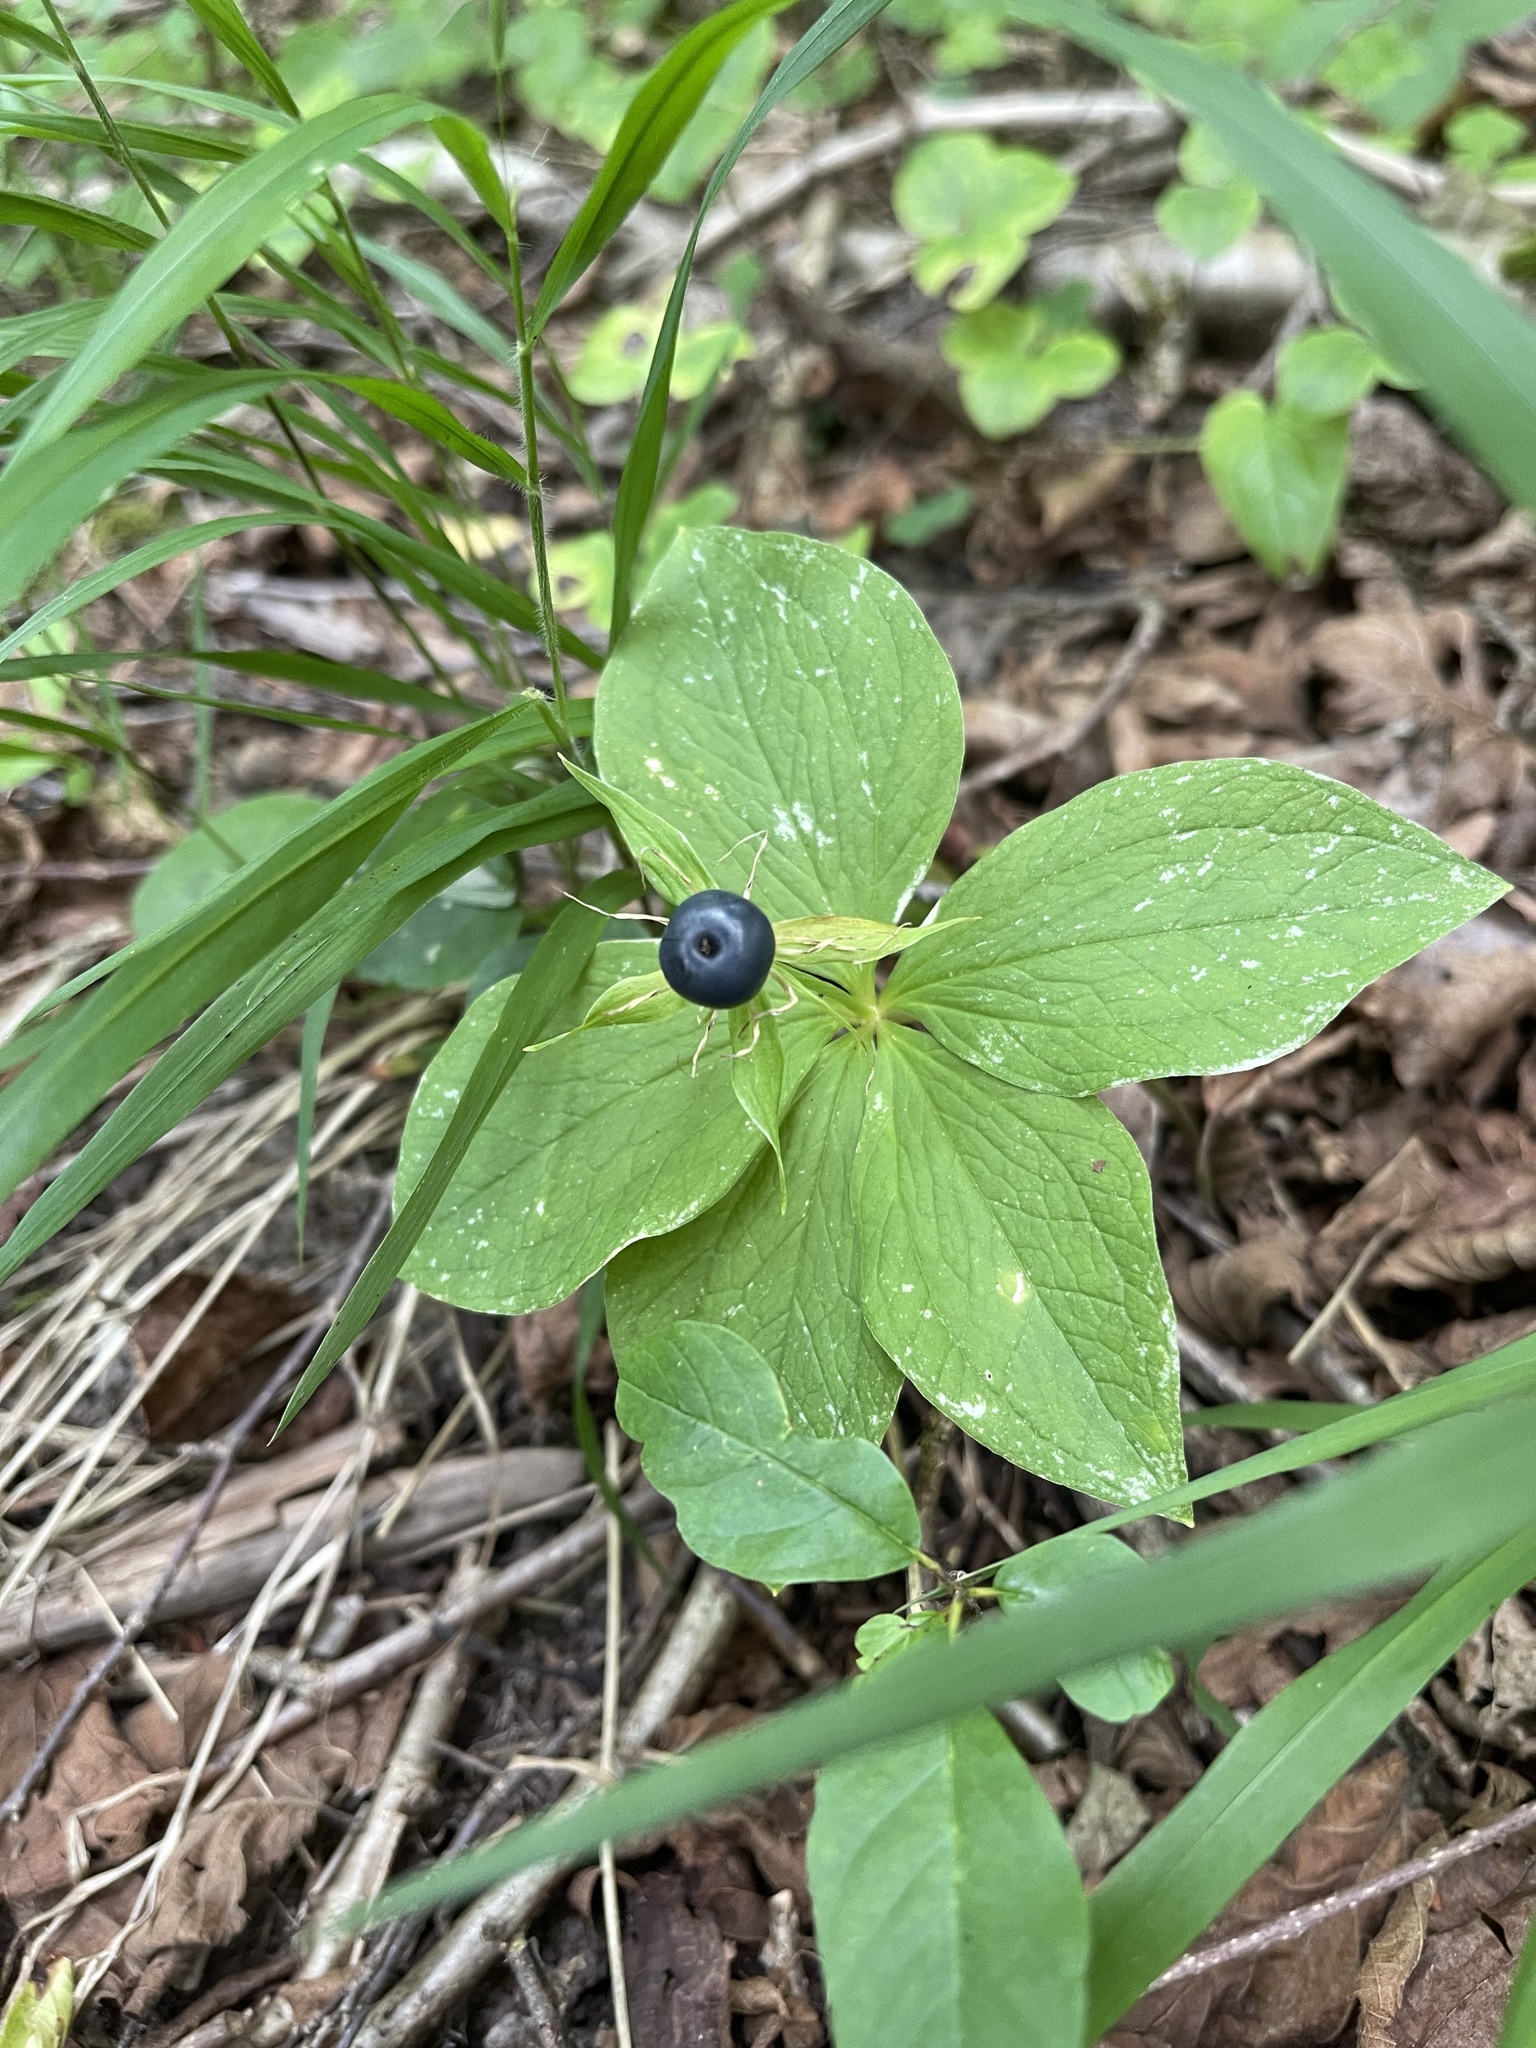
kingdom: Plantae
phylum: Tracheophyta
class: Liliopsida
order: Liliales
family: Melanthiaceae
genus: Paris
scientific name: Paris quadrifolia
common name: Herb-paris
